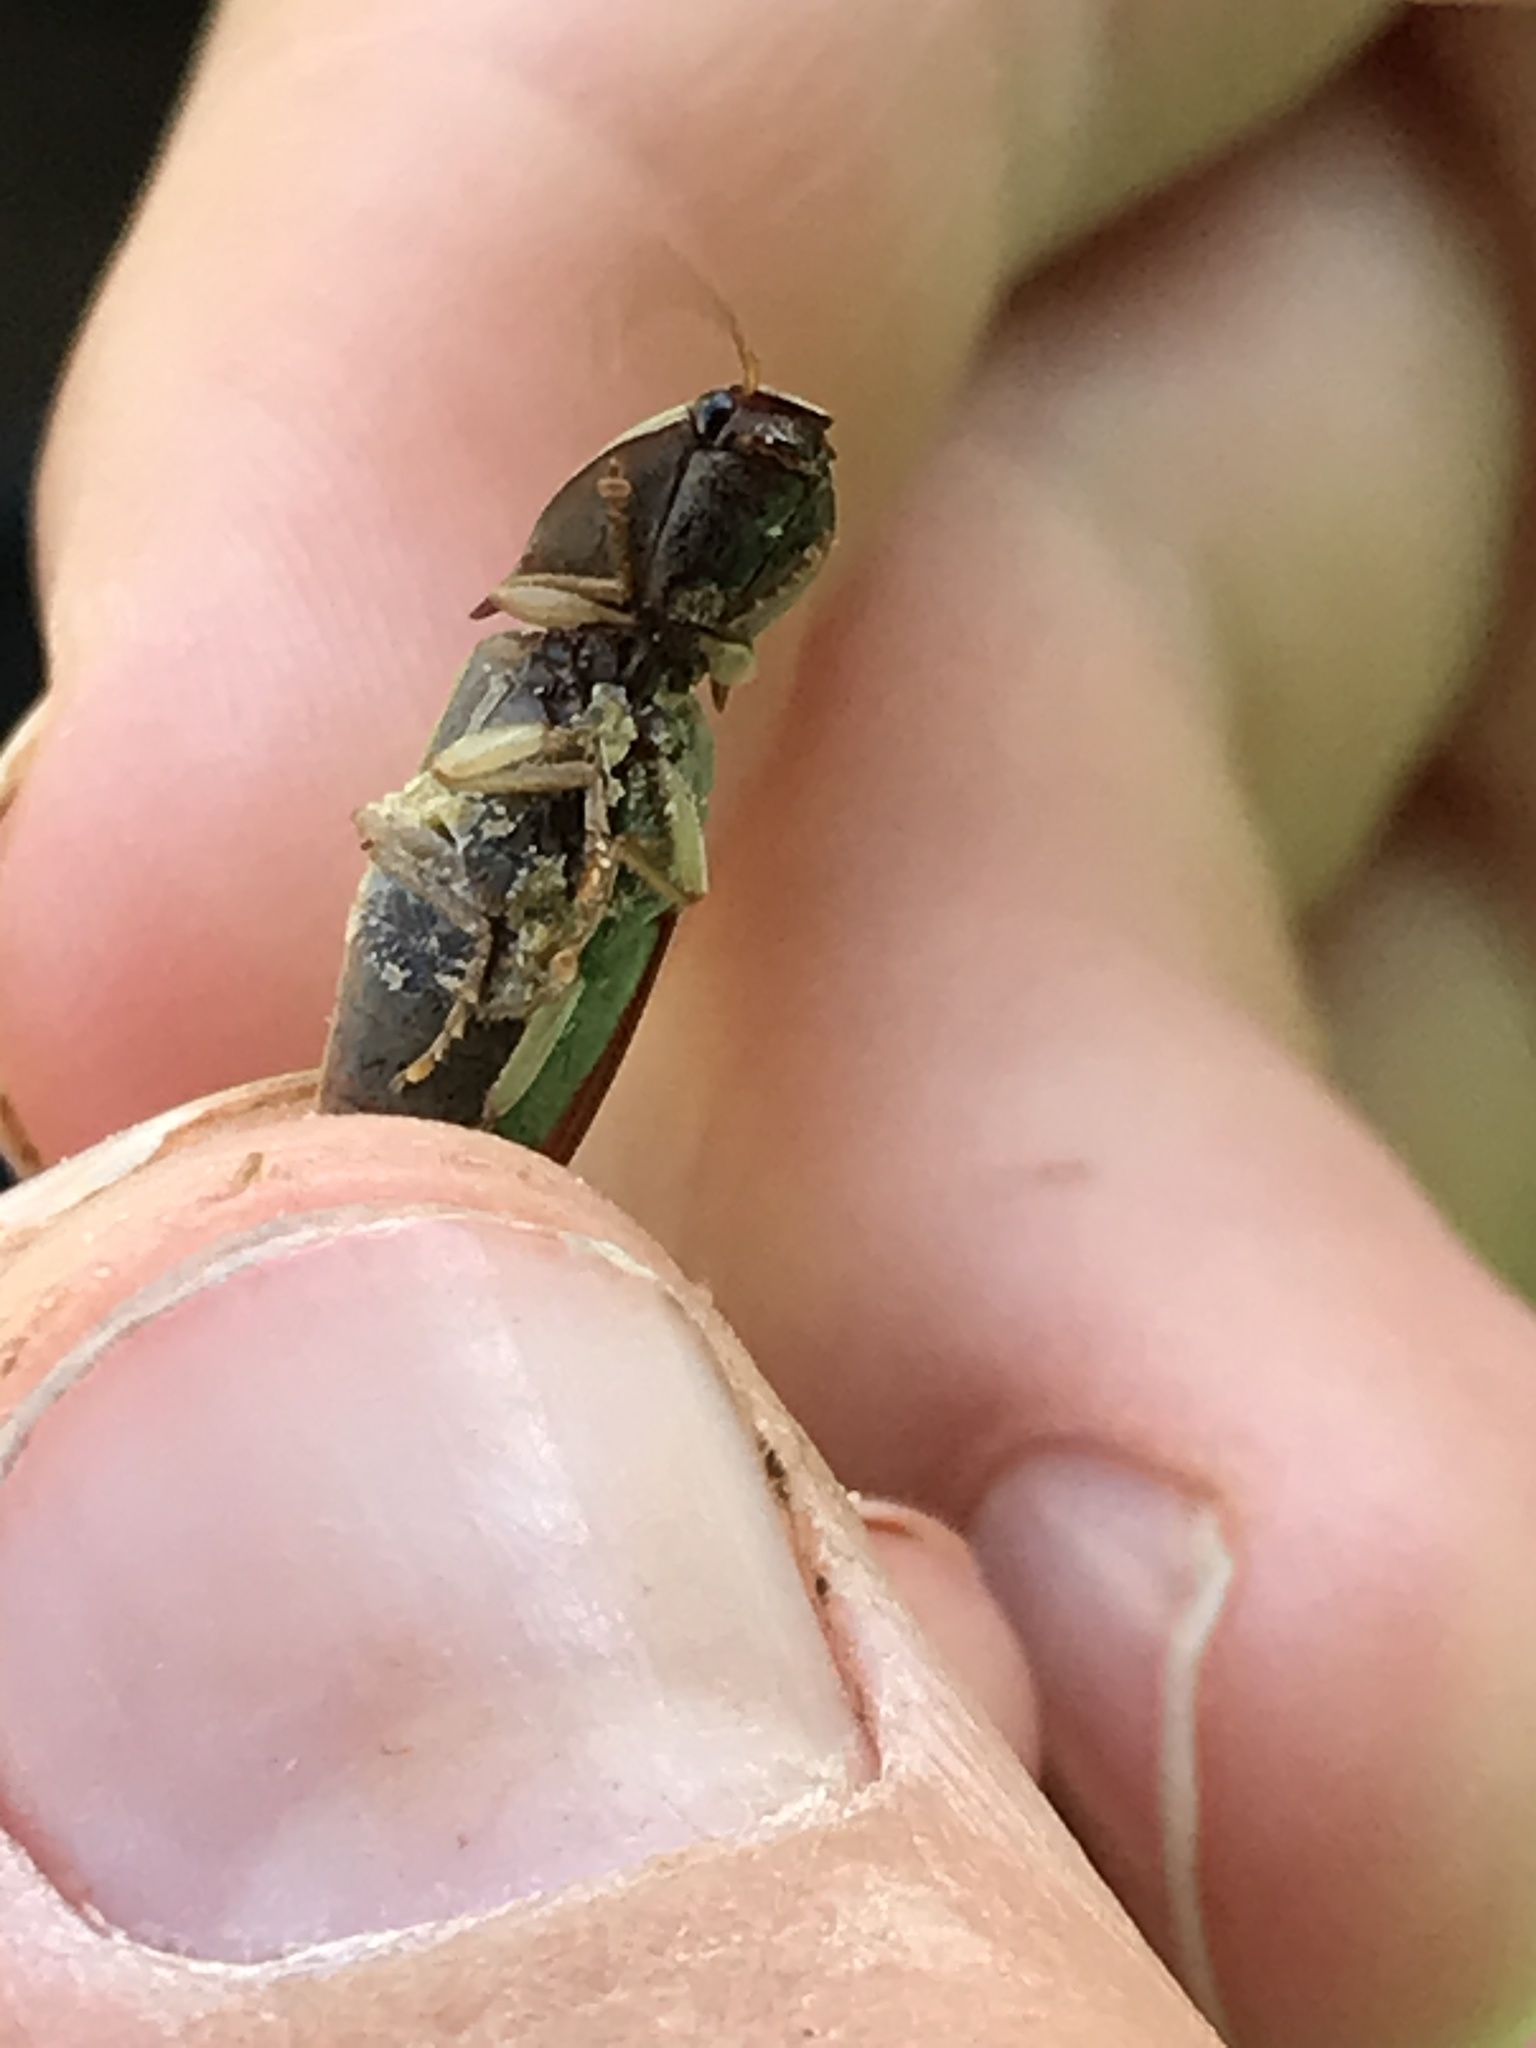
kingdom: Animalia
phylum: Arthropoda
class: Insecta
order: Coleoptera
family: Elateridae
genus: Monocrepidius
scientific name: Monocrepidius lividus
